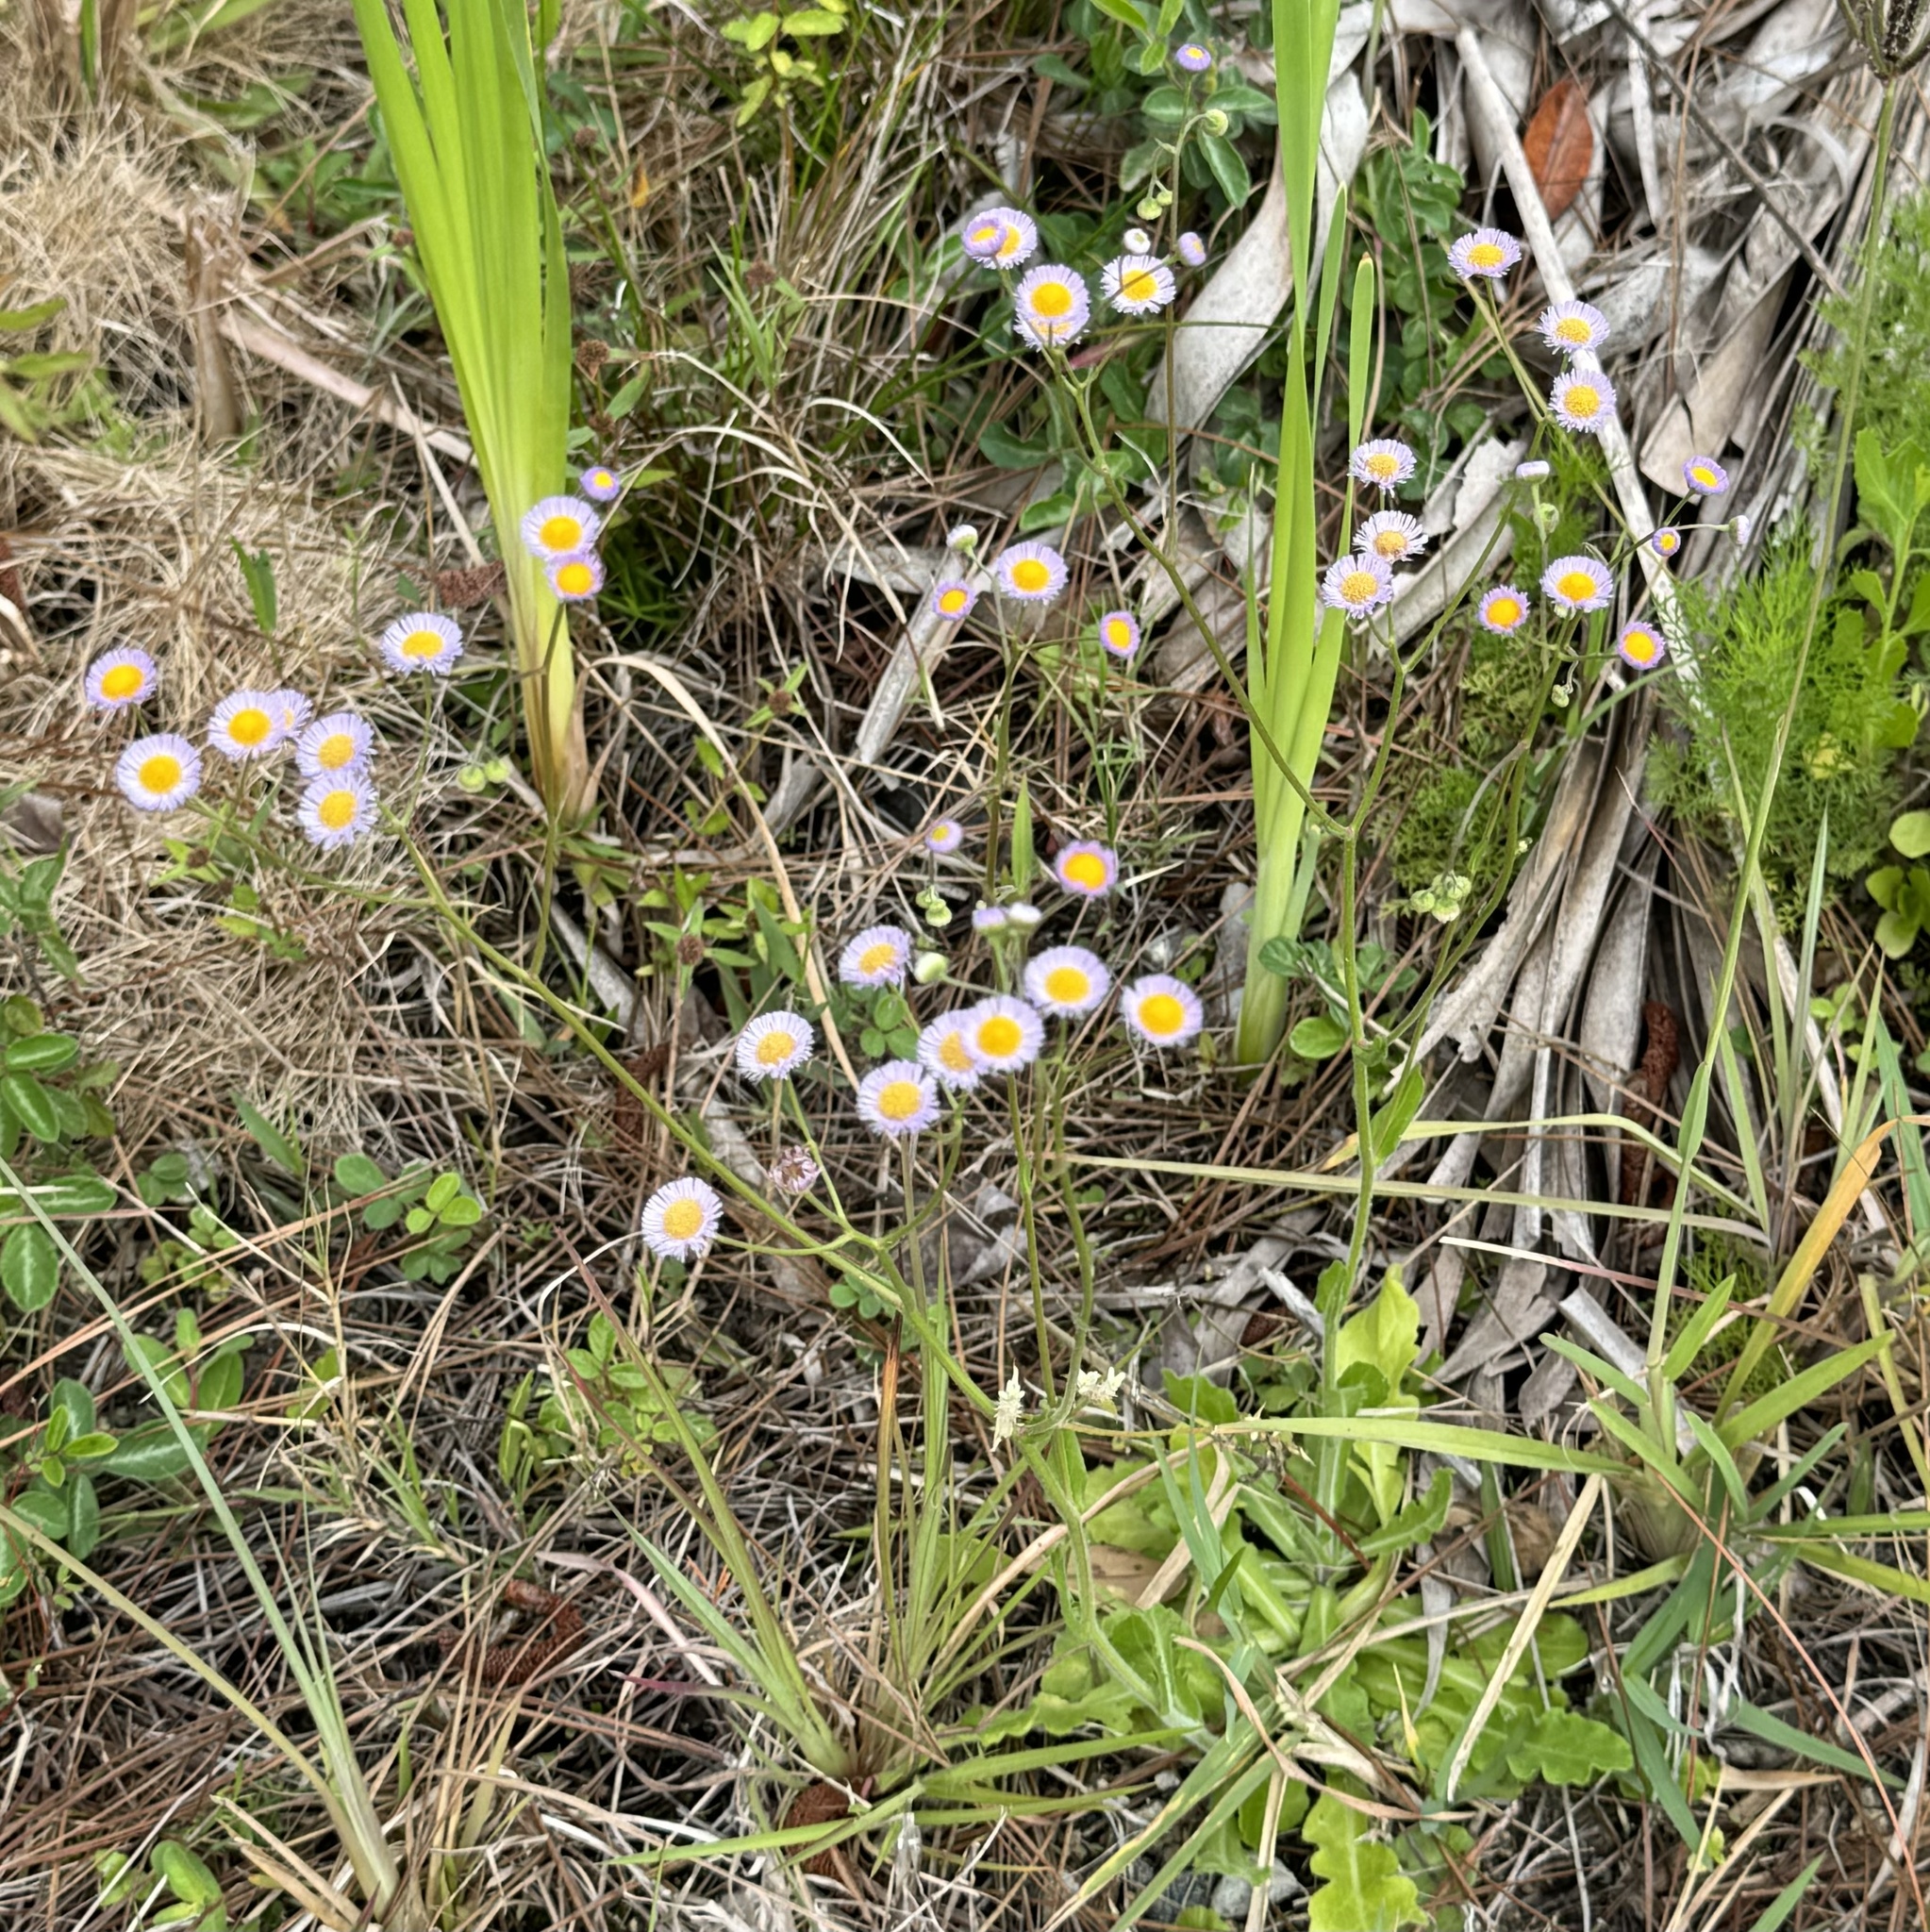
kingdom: Plantae
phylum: Tracheophyta
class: Magnoliopsida
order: Asterales
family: Asteraceae
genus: Erigeron
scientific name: Erigeron quercifolius
